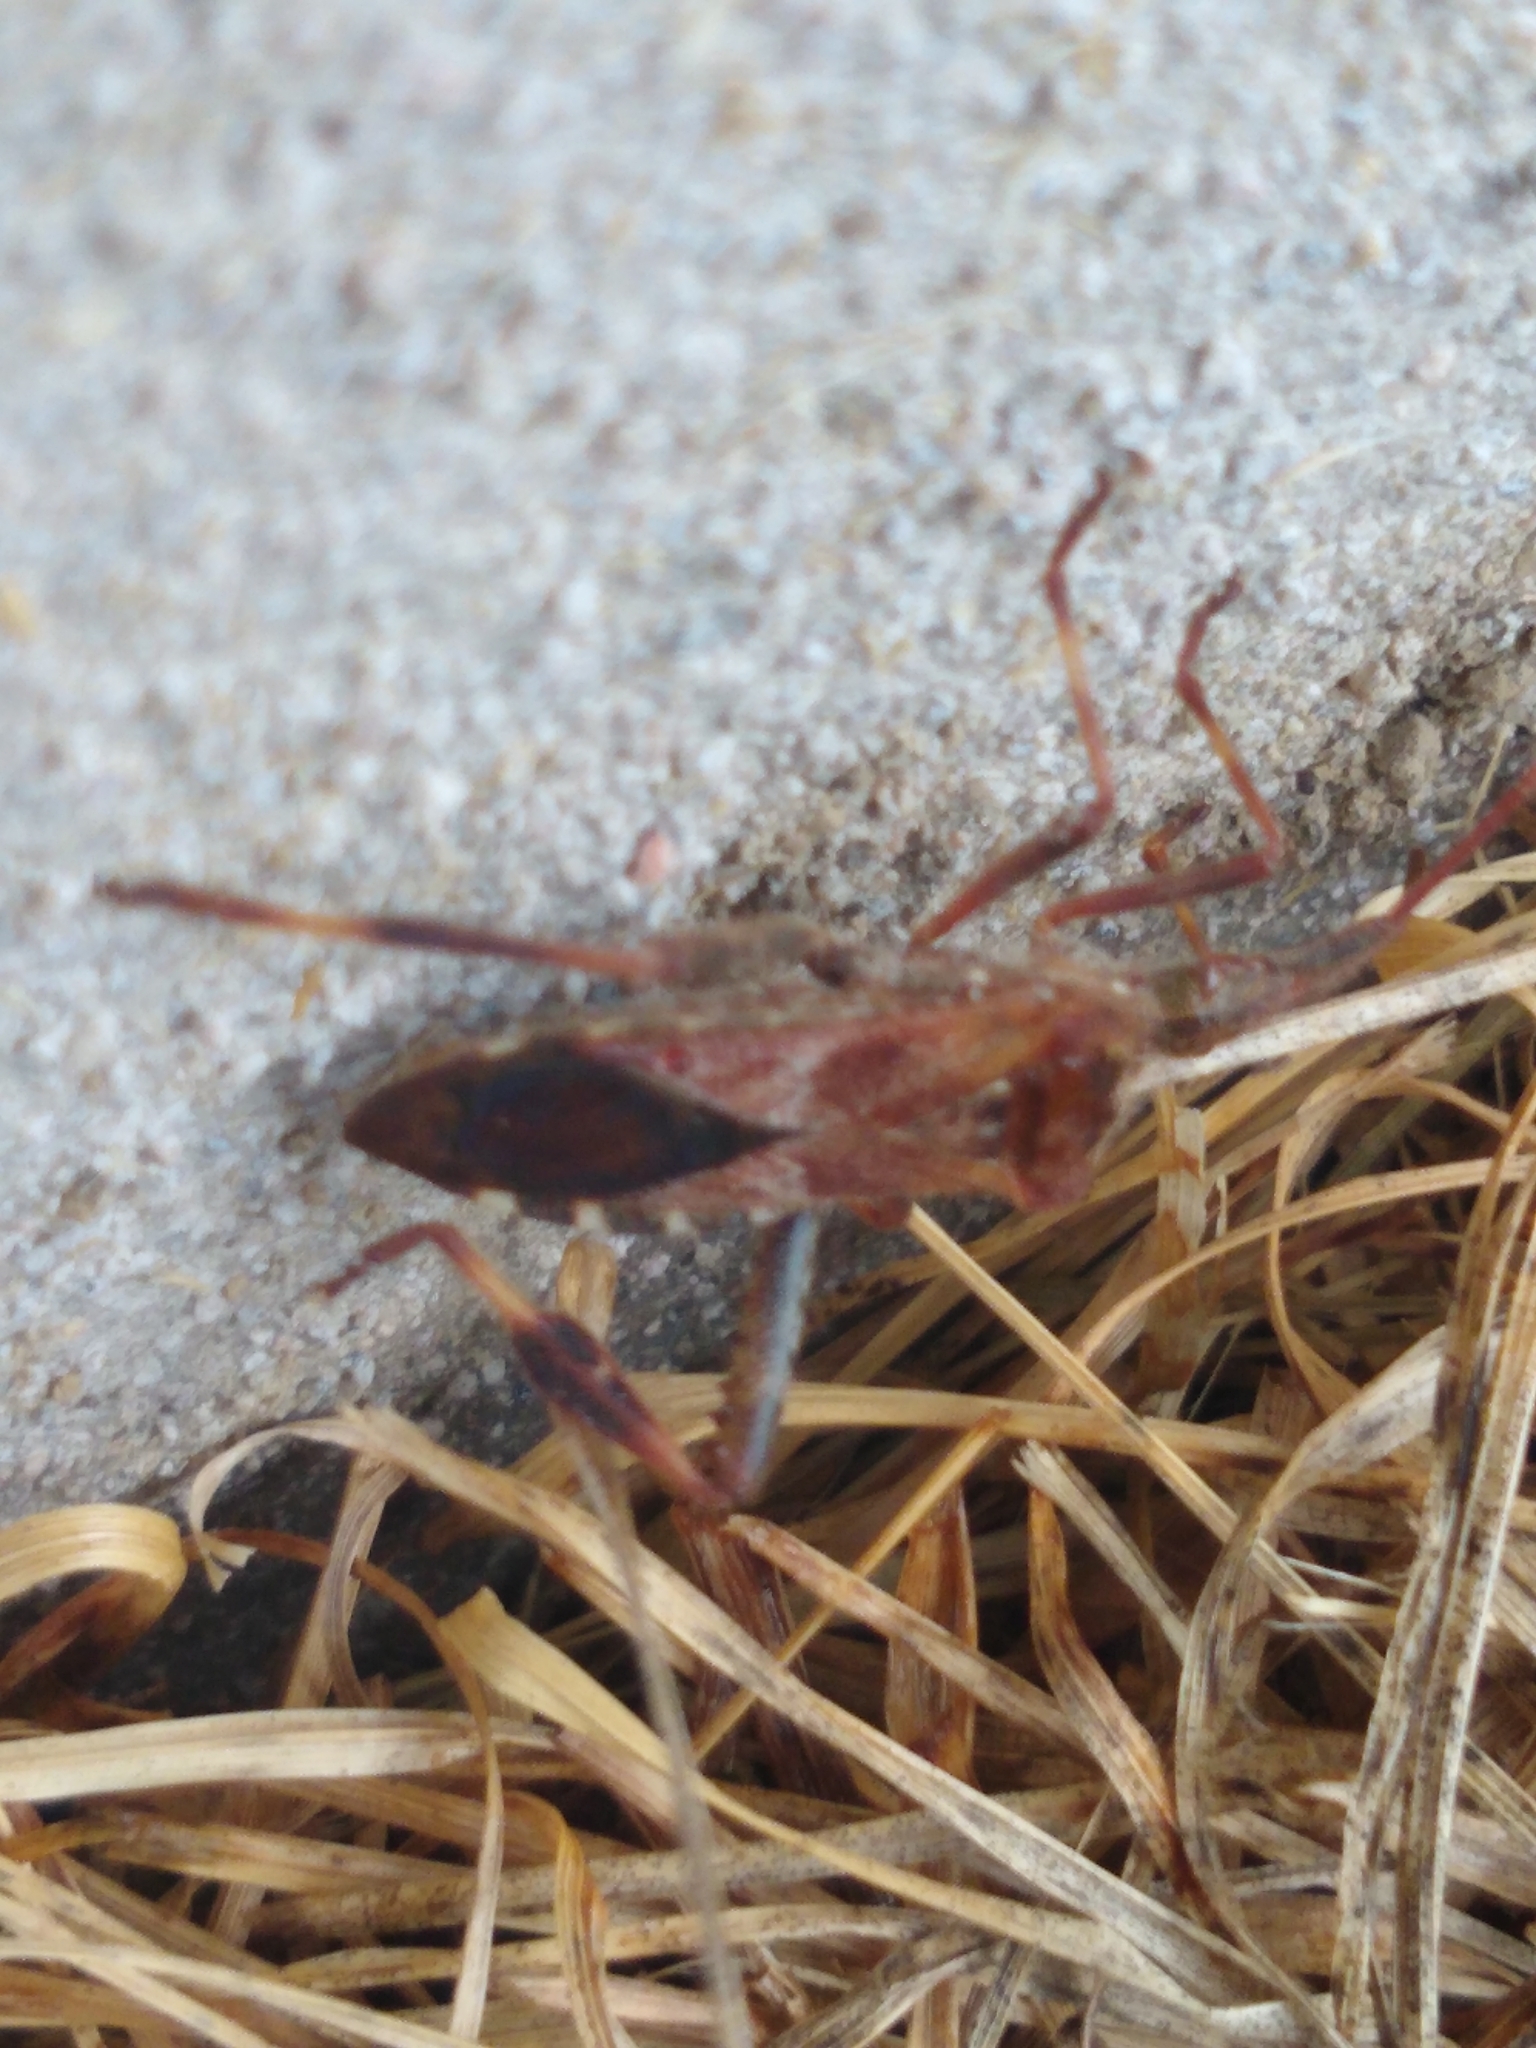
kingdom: Animalia
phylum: Arthropoda
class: Insecta
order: Hemiptera
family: Coreidae
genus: Leptoglossus
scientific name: Leptoglossus occidentalis
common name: Western conifer-seed bug
